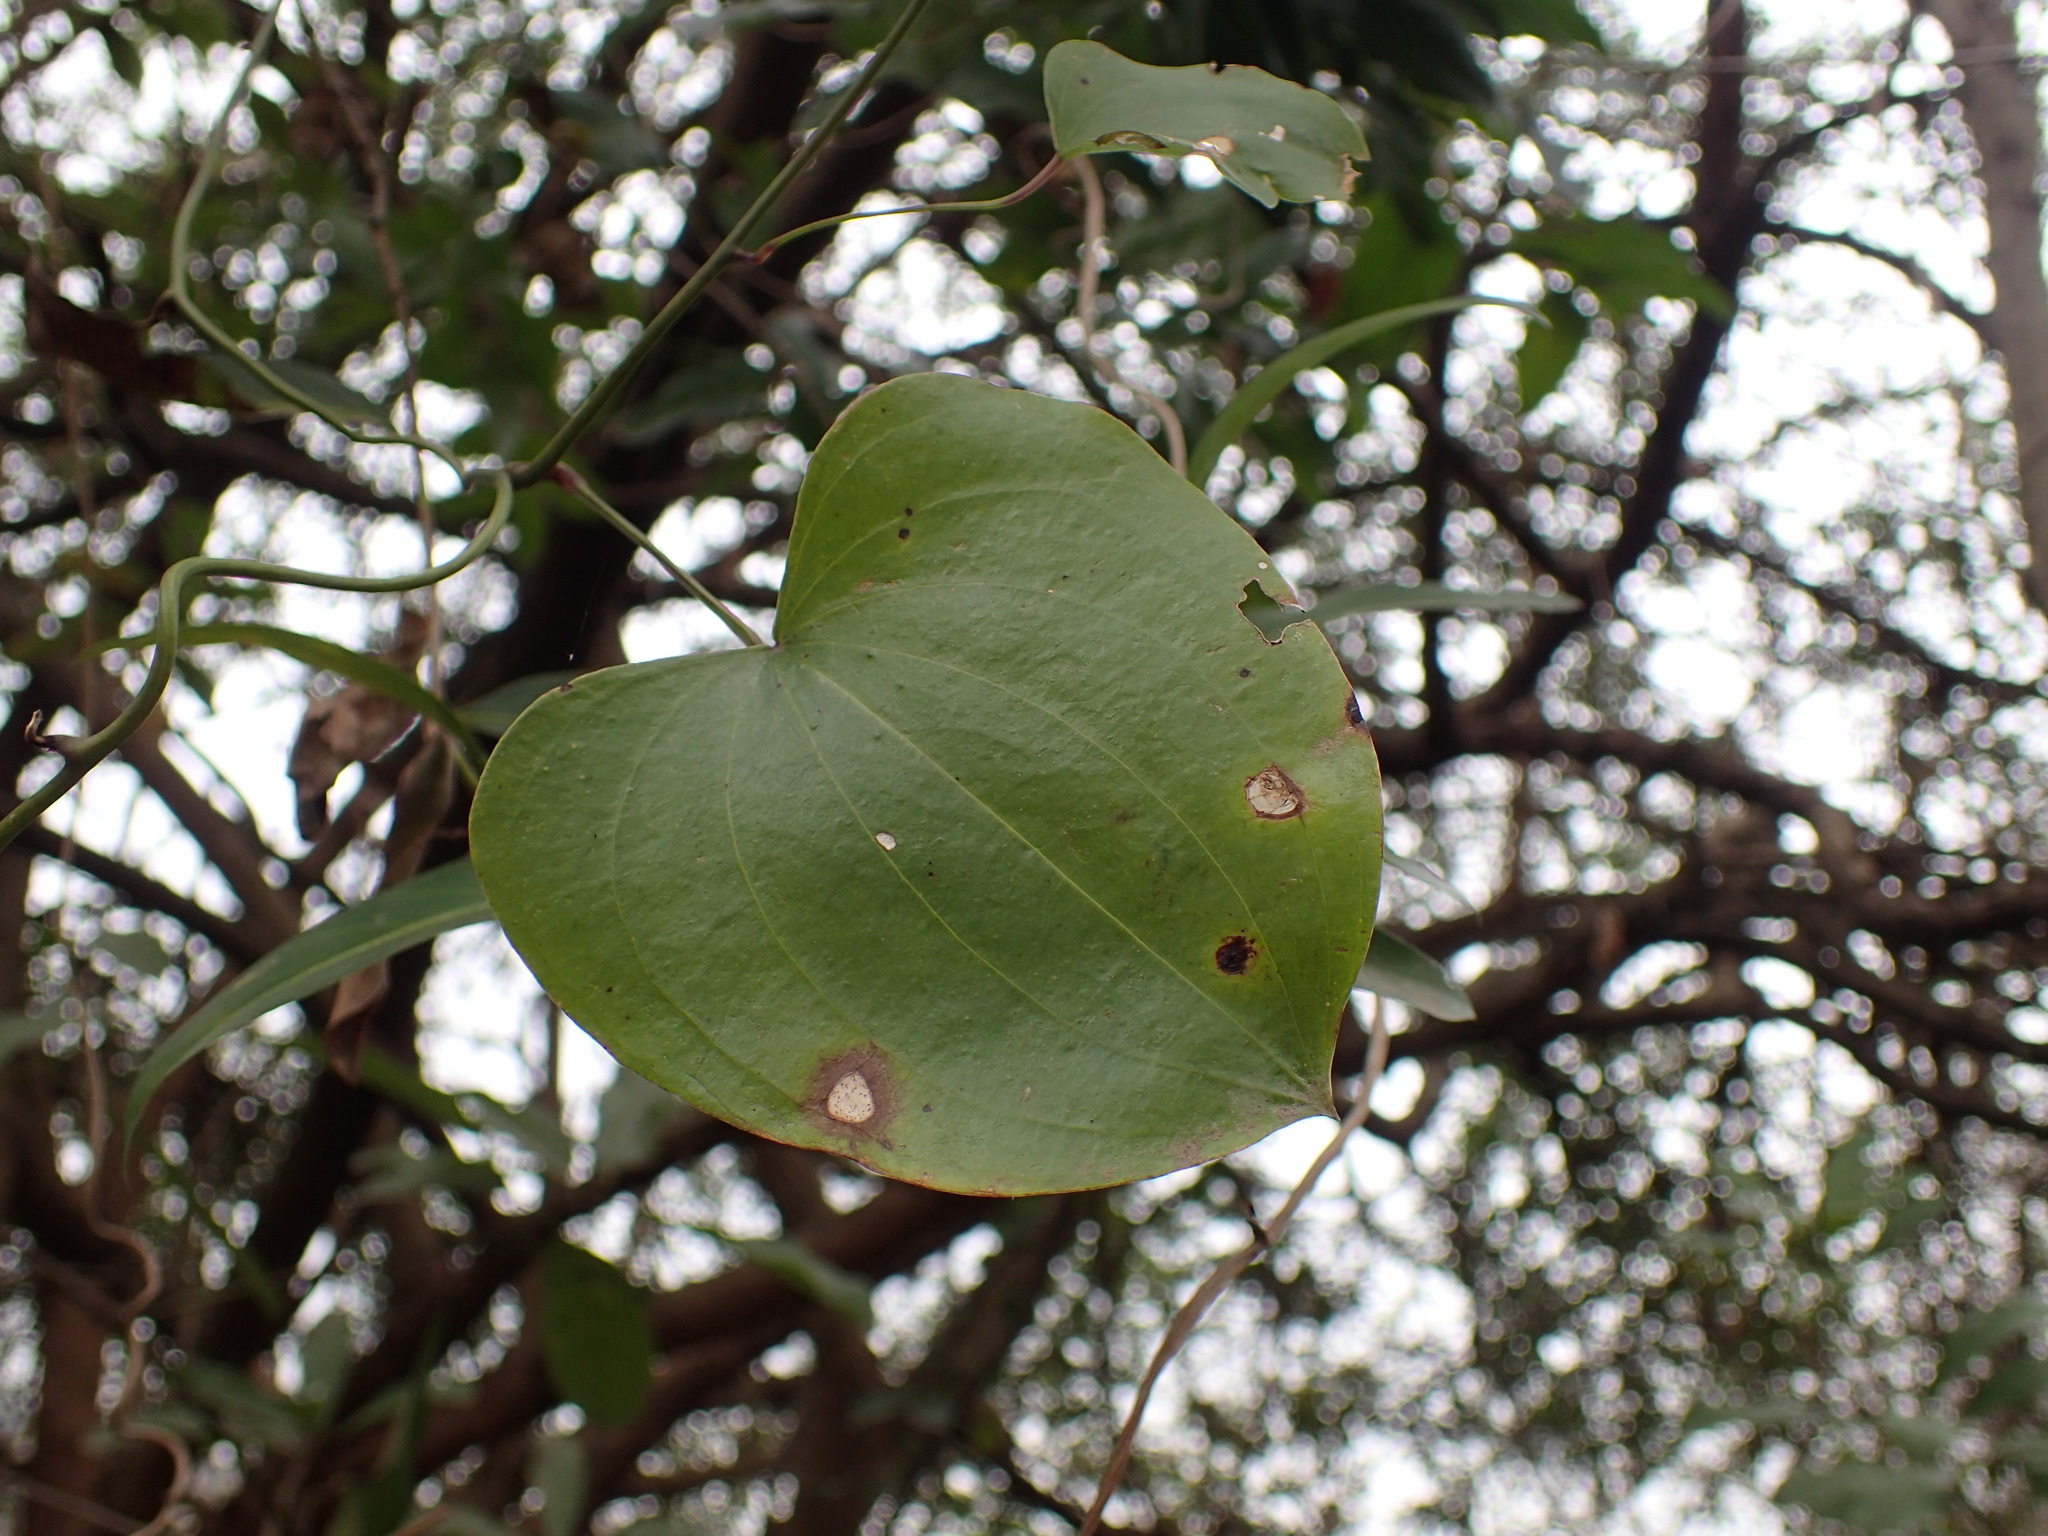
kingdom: Plantae
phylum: Tracheophyta
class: Liliopsida
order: Dioscoreales
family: Dioscoreaceae
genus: Dioscorea
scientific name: Dioscorea cotinifolia
